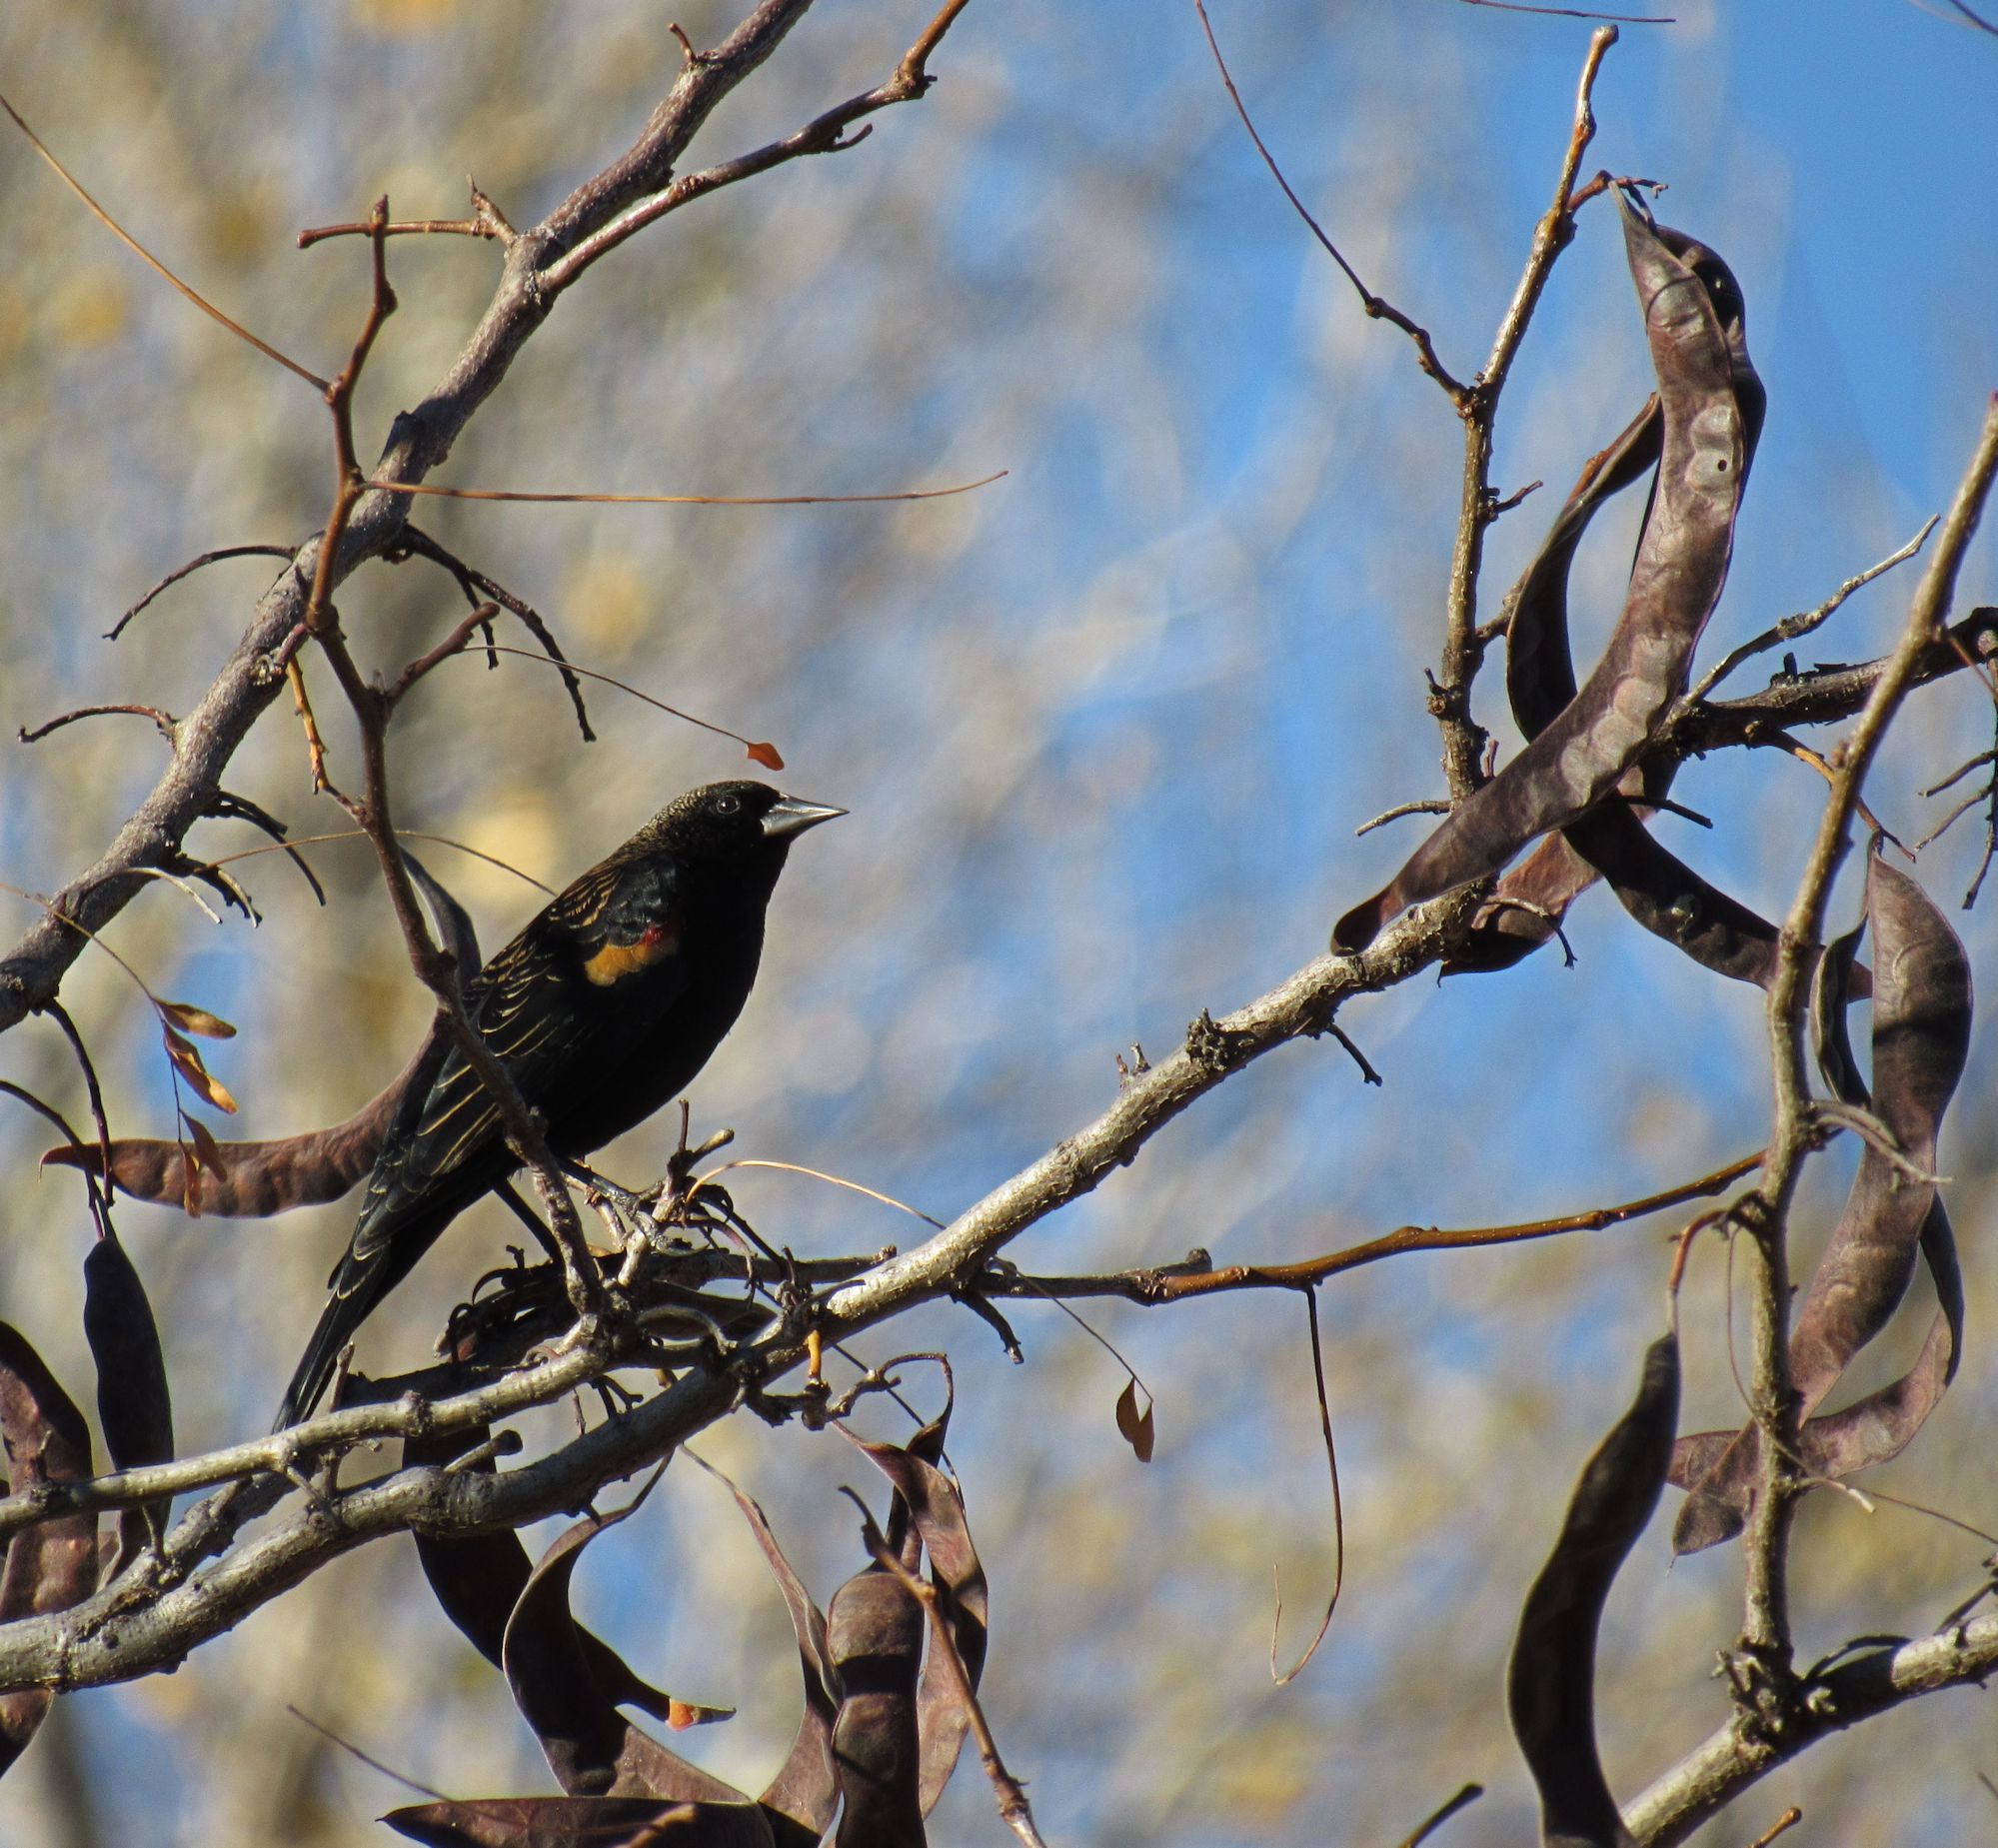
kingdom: Animalia
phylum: Chordata
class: Aves
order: Passeriformes
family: Icteridae
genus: Agelaius
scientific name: Agelaius phoeniceus
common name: Red-winged blackbird
